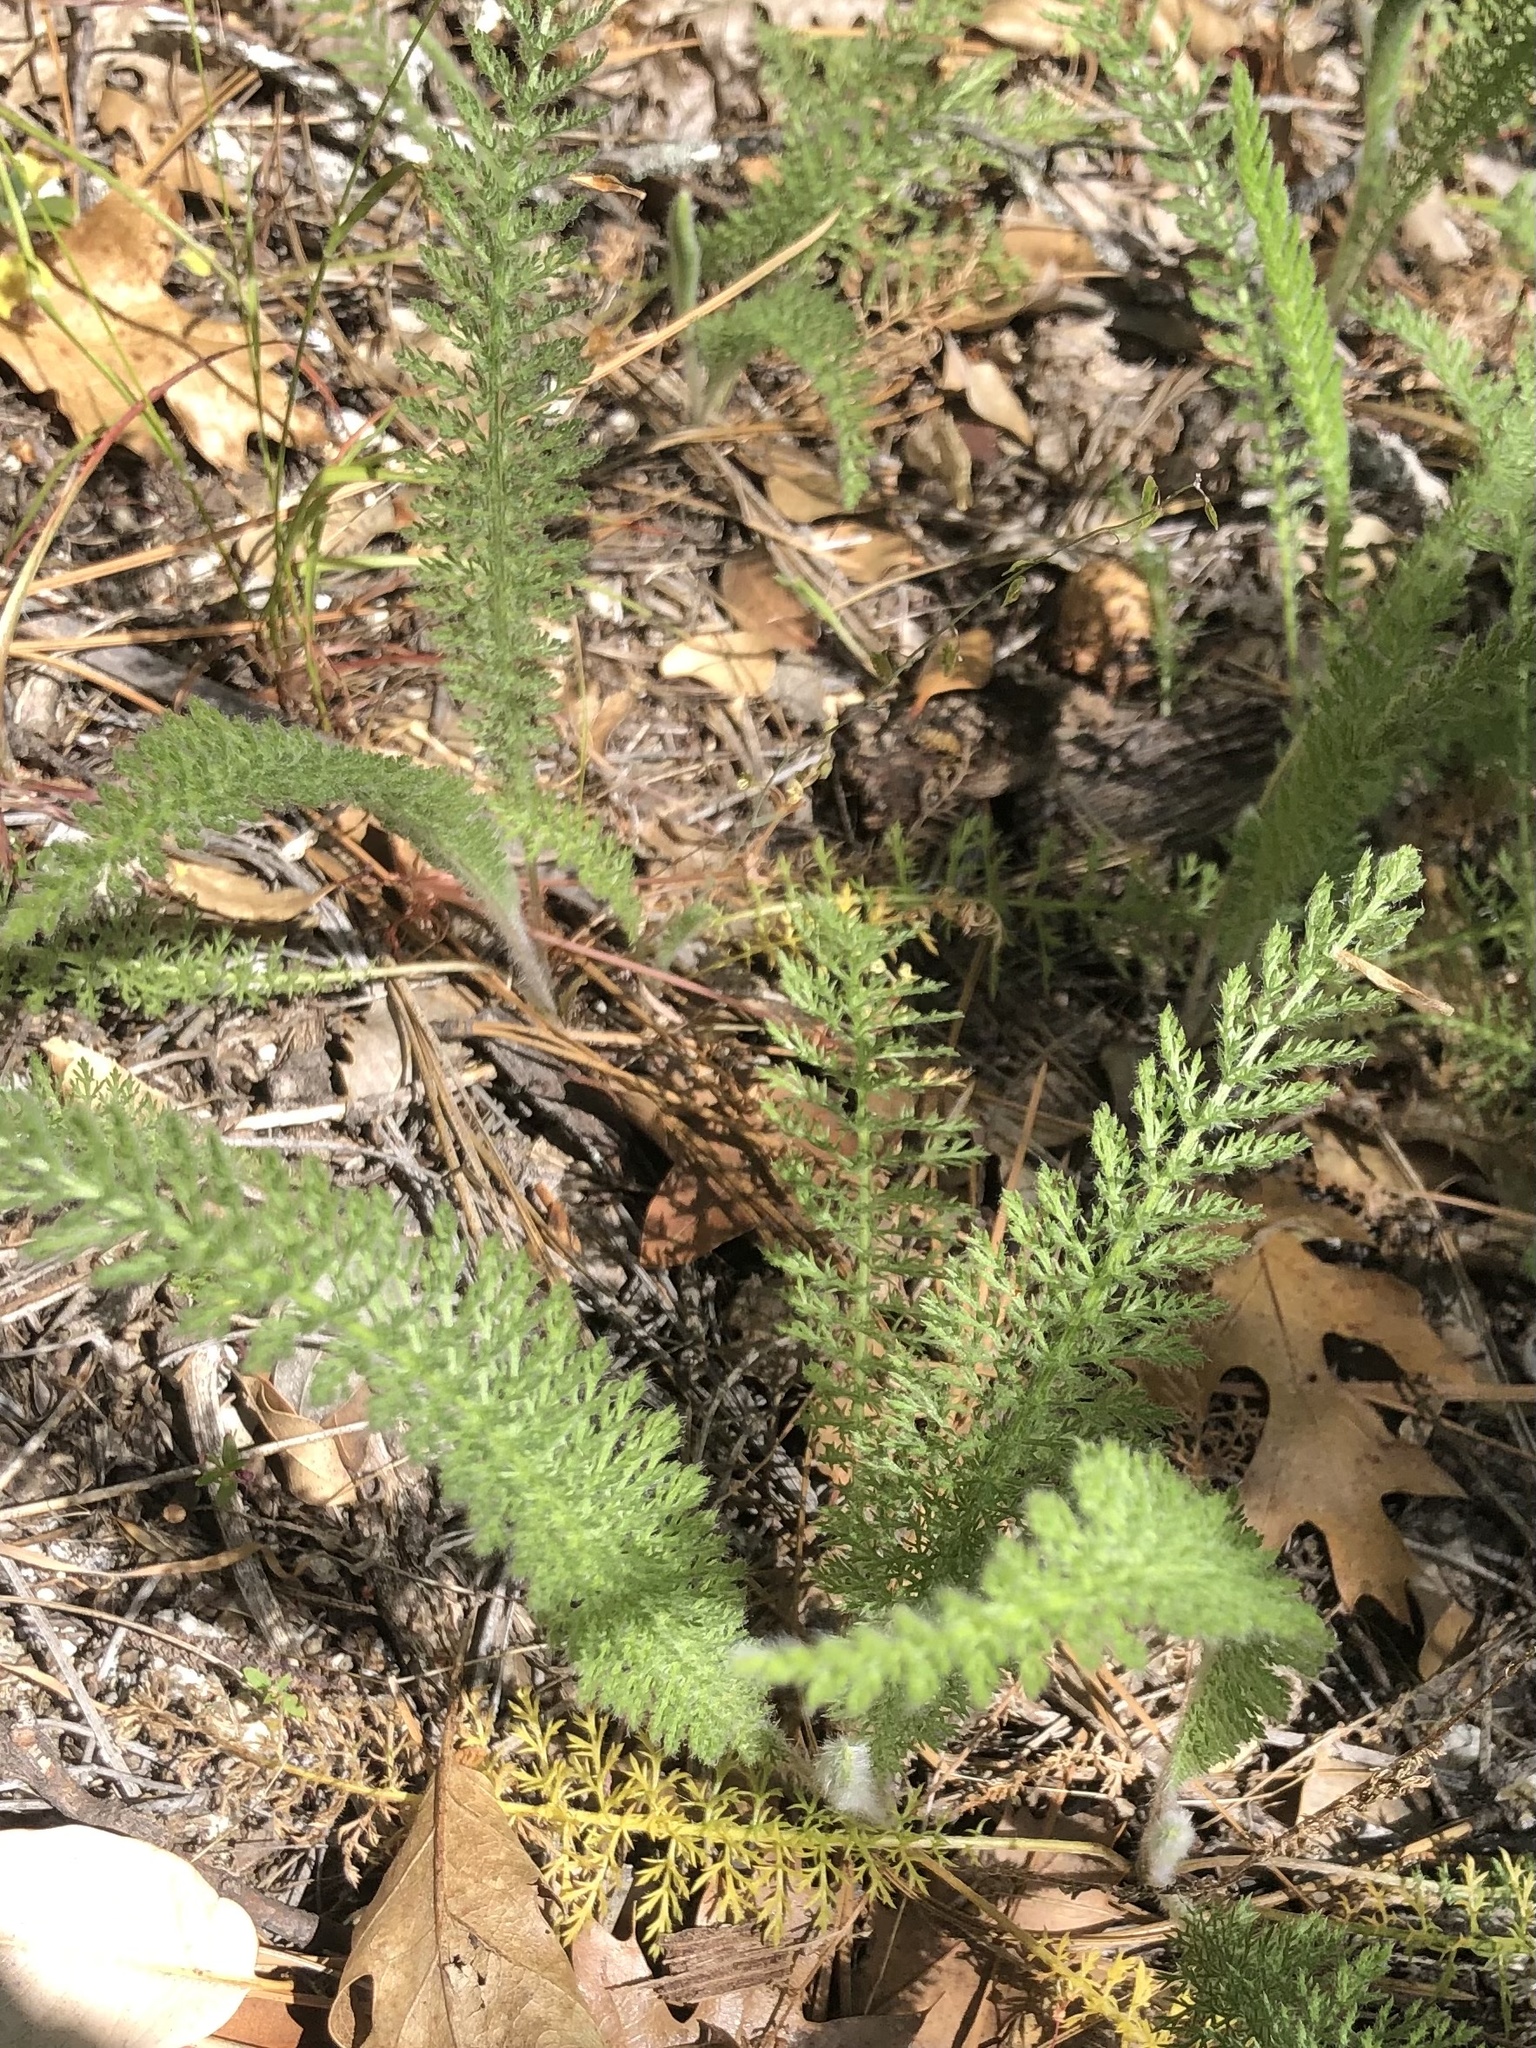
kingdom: Plantae
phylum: Tracheophyta
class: Magnoliopsida
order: Asterales
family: Asteraceae
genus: Achillea
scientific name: Achillea millefolium
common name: Yarrow
